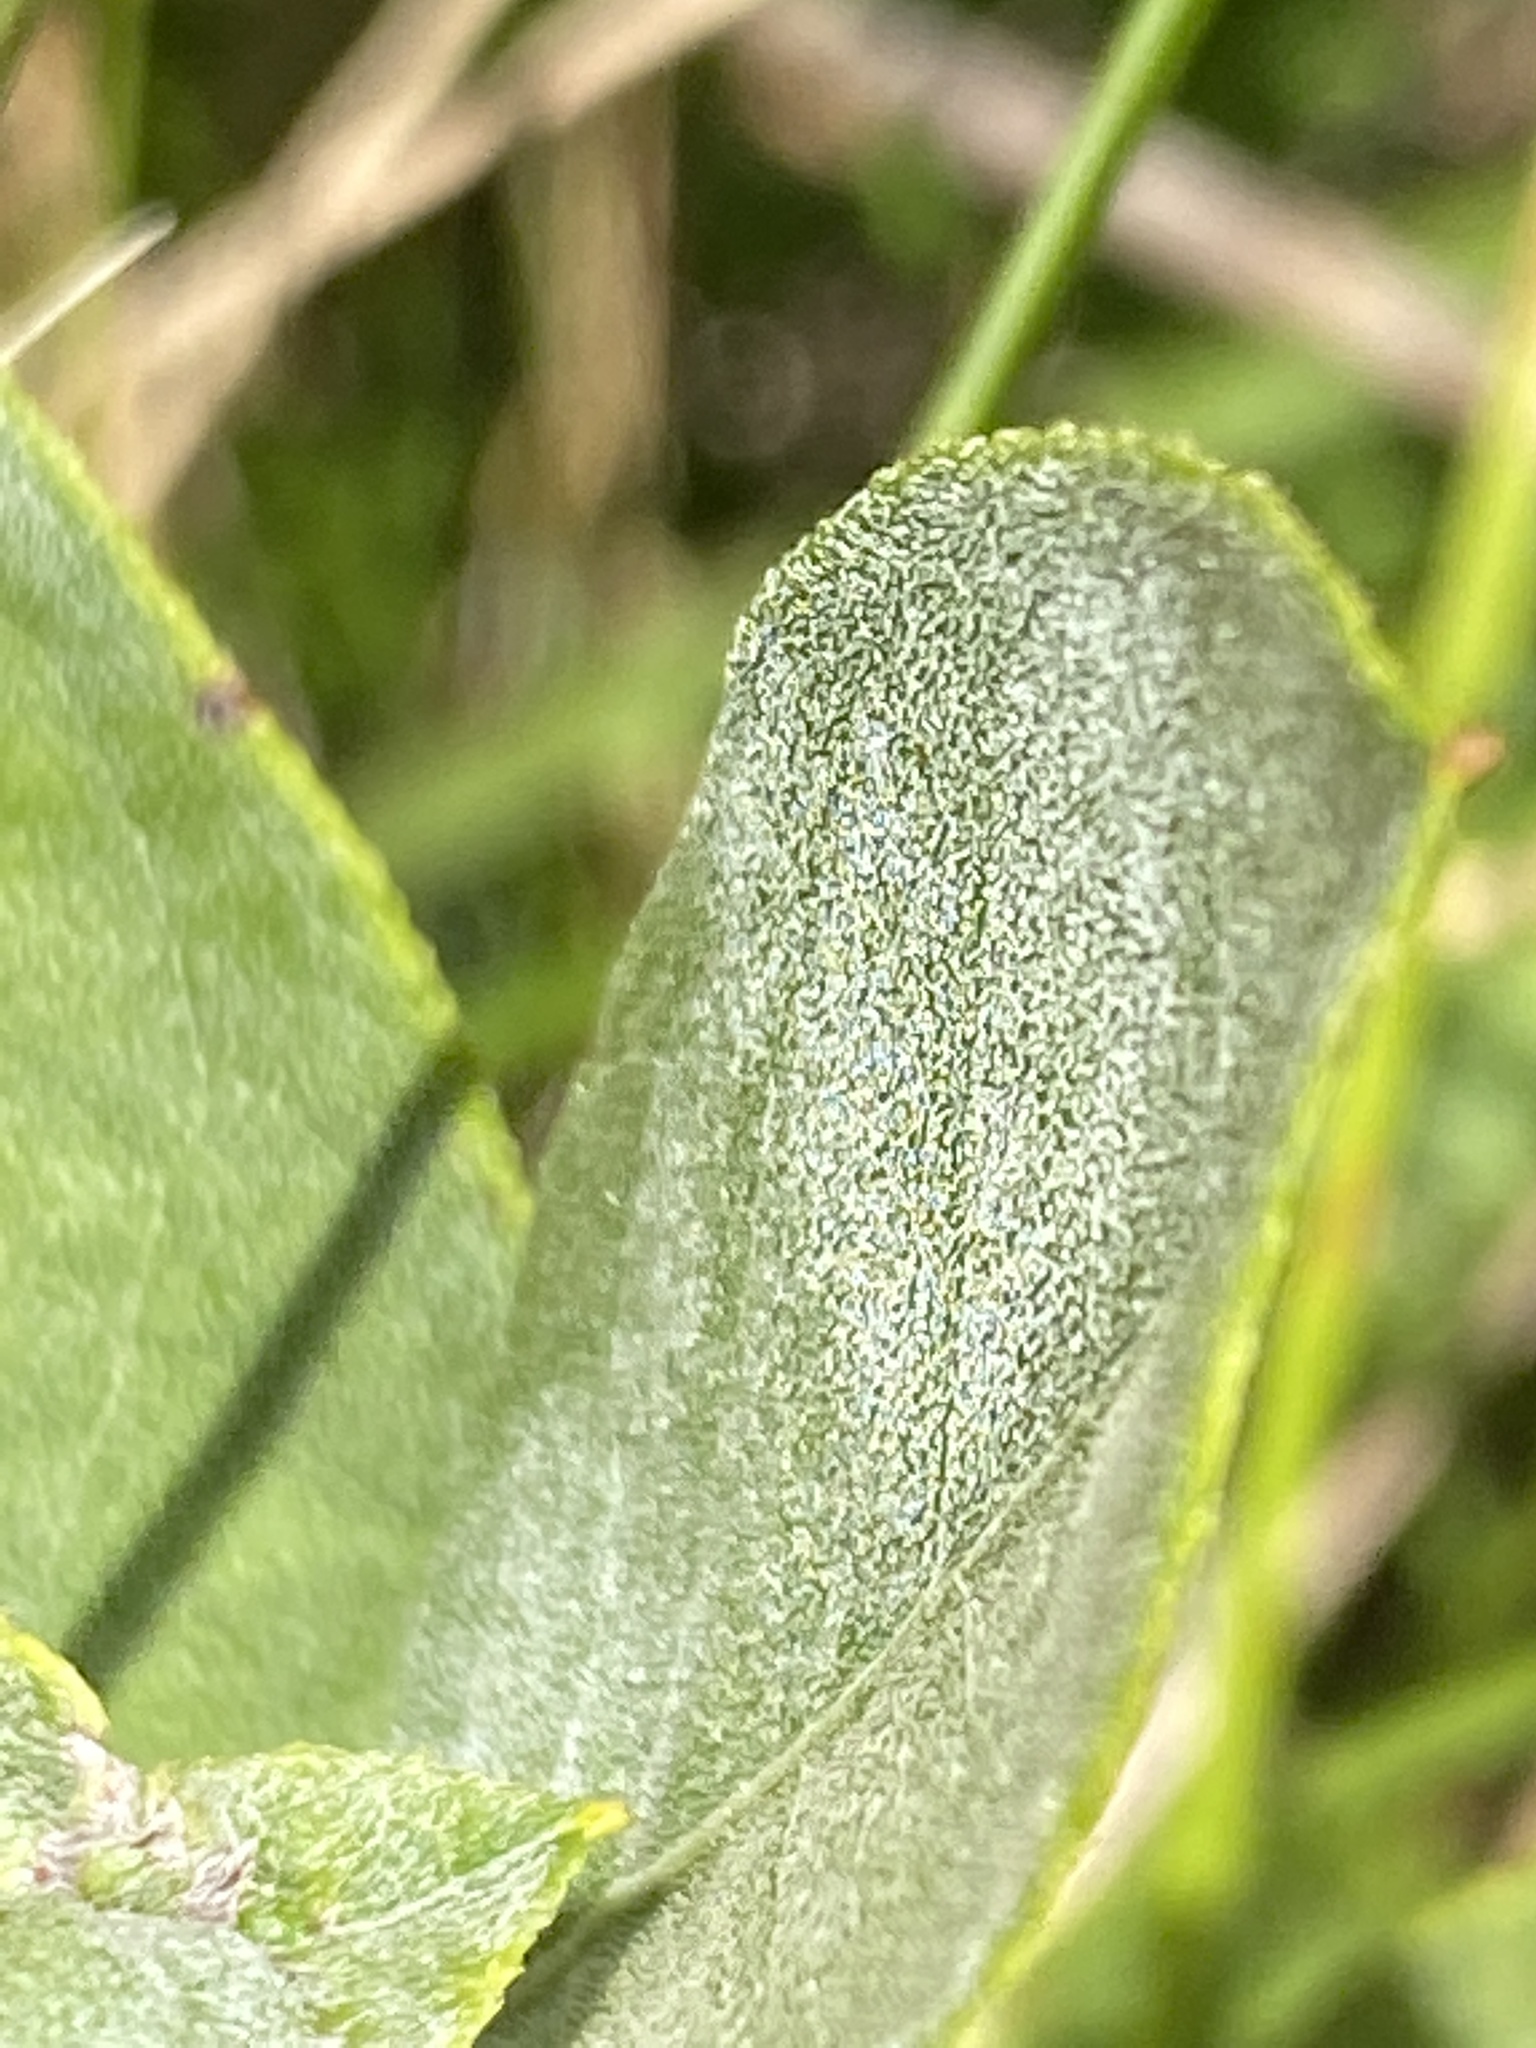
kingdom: Plantae
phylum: Tracheophyta
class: Magnoliopsida
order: Ericales
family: Ericaceae
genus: Lyonia
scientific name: Lyonia ligustrina
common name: Maleberry
